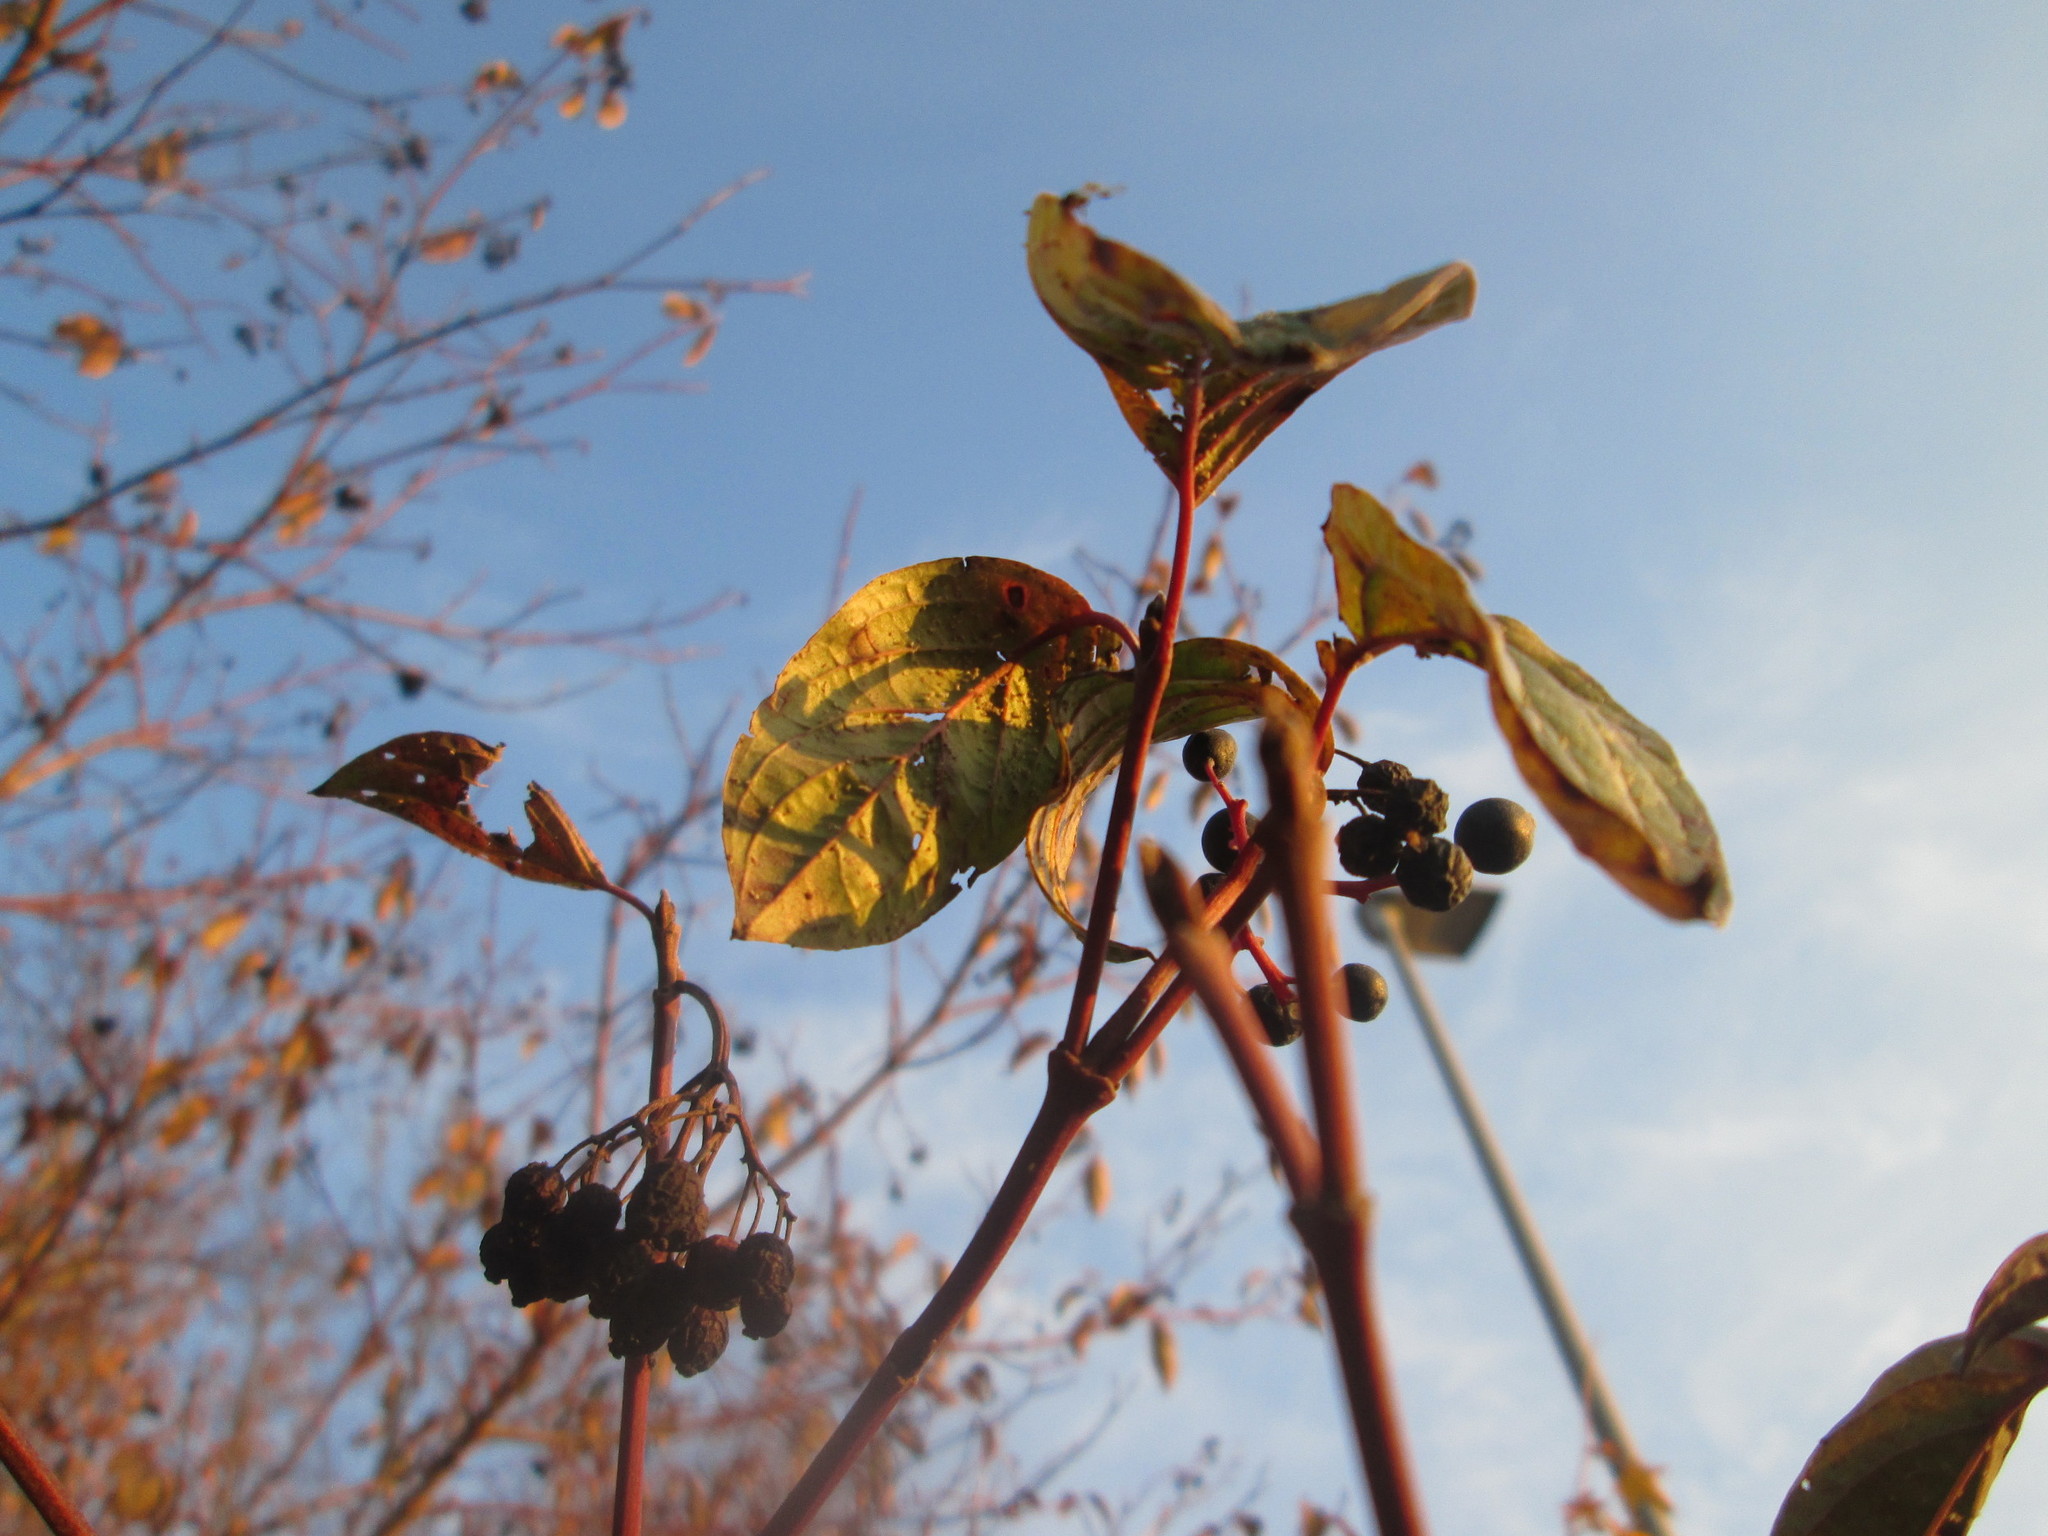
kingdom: Plantae
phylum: Tracheophyta
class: Magnoliopsida
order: Cornales
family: Cornaceae
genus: Cornus
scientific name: Cornus sanguinea
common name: Dogwood
